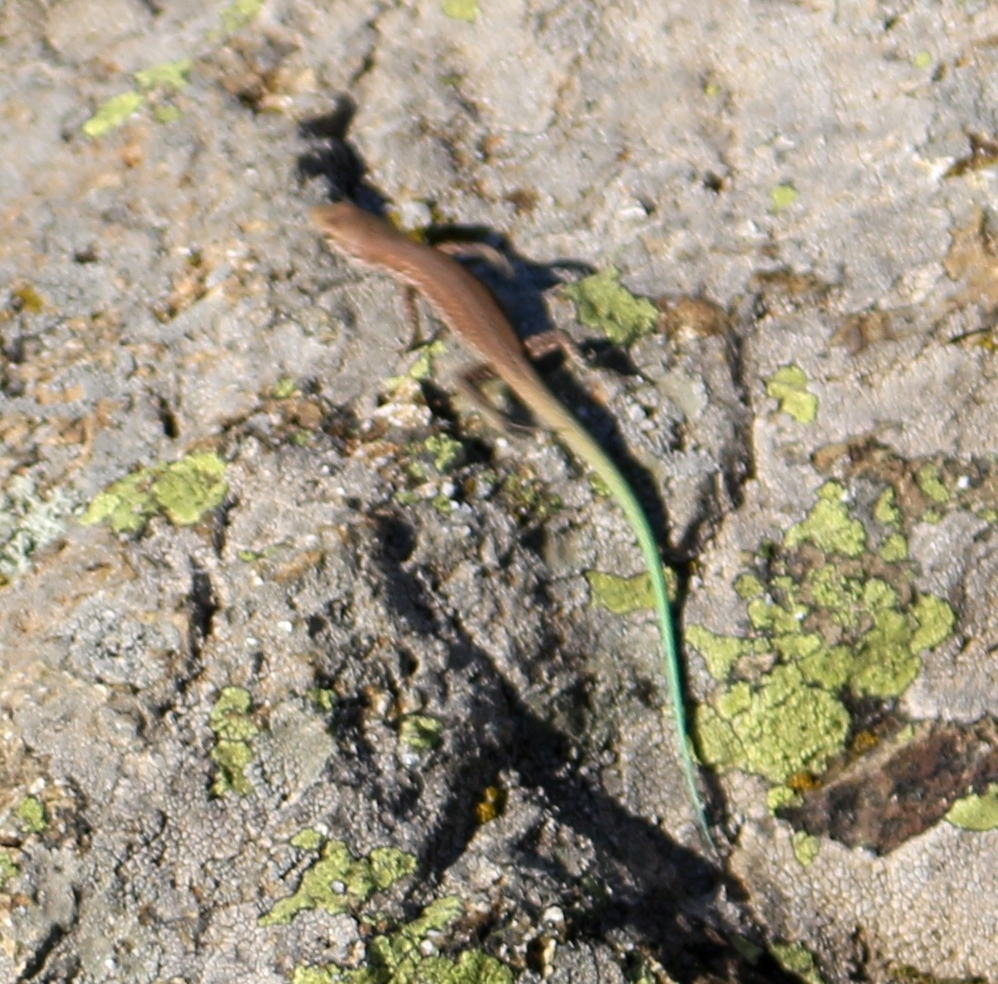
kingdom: Animalia
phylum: Chordata
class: Squamata
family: Lacertidae
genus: Darevskia
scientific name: Darevskia brauneri
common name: Brauner's rock lizard
